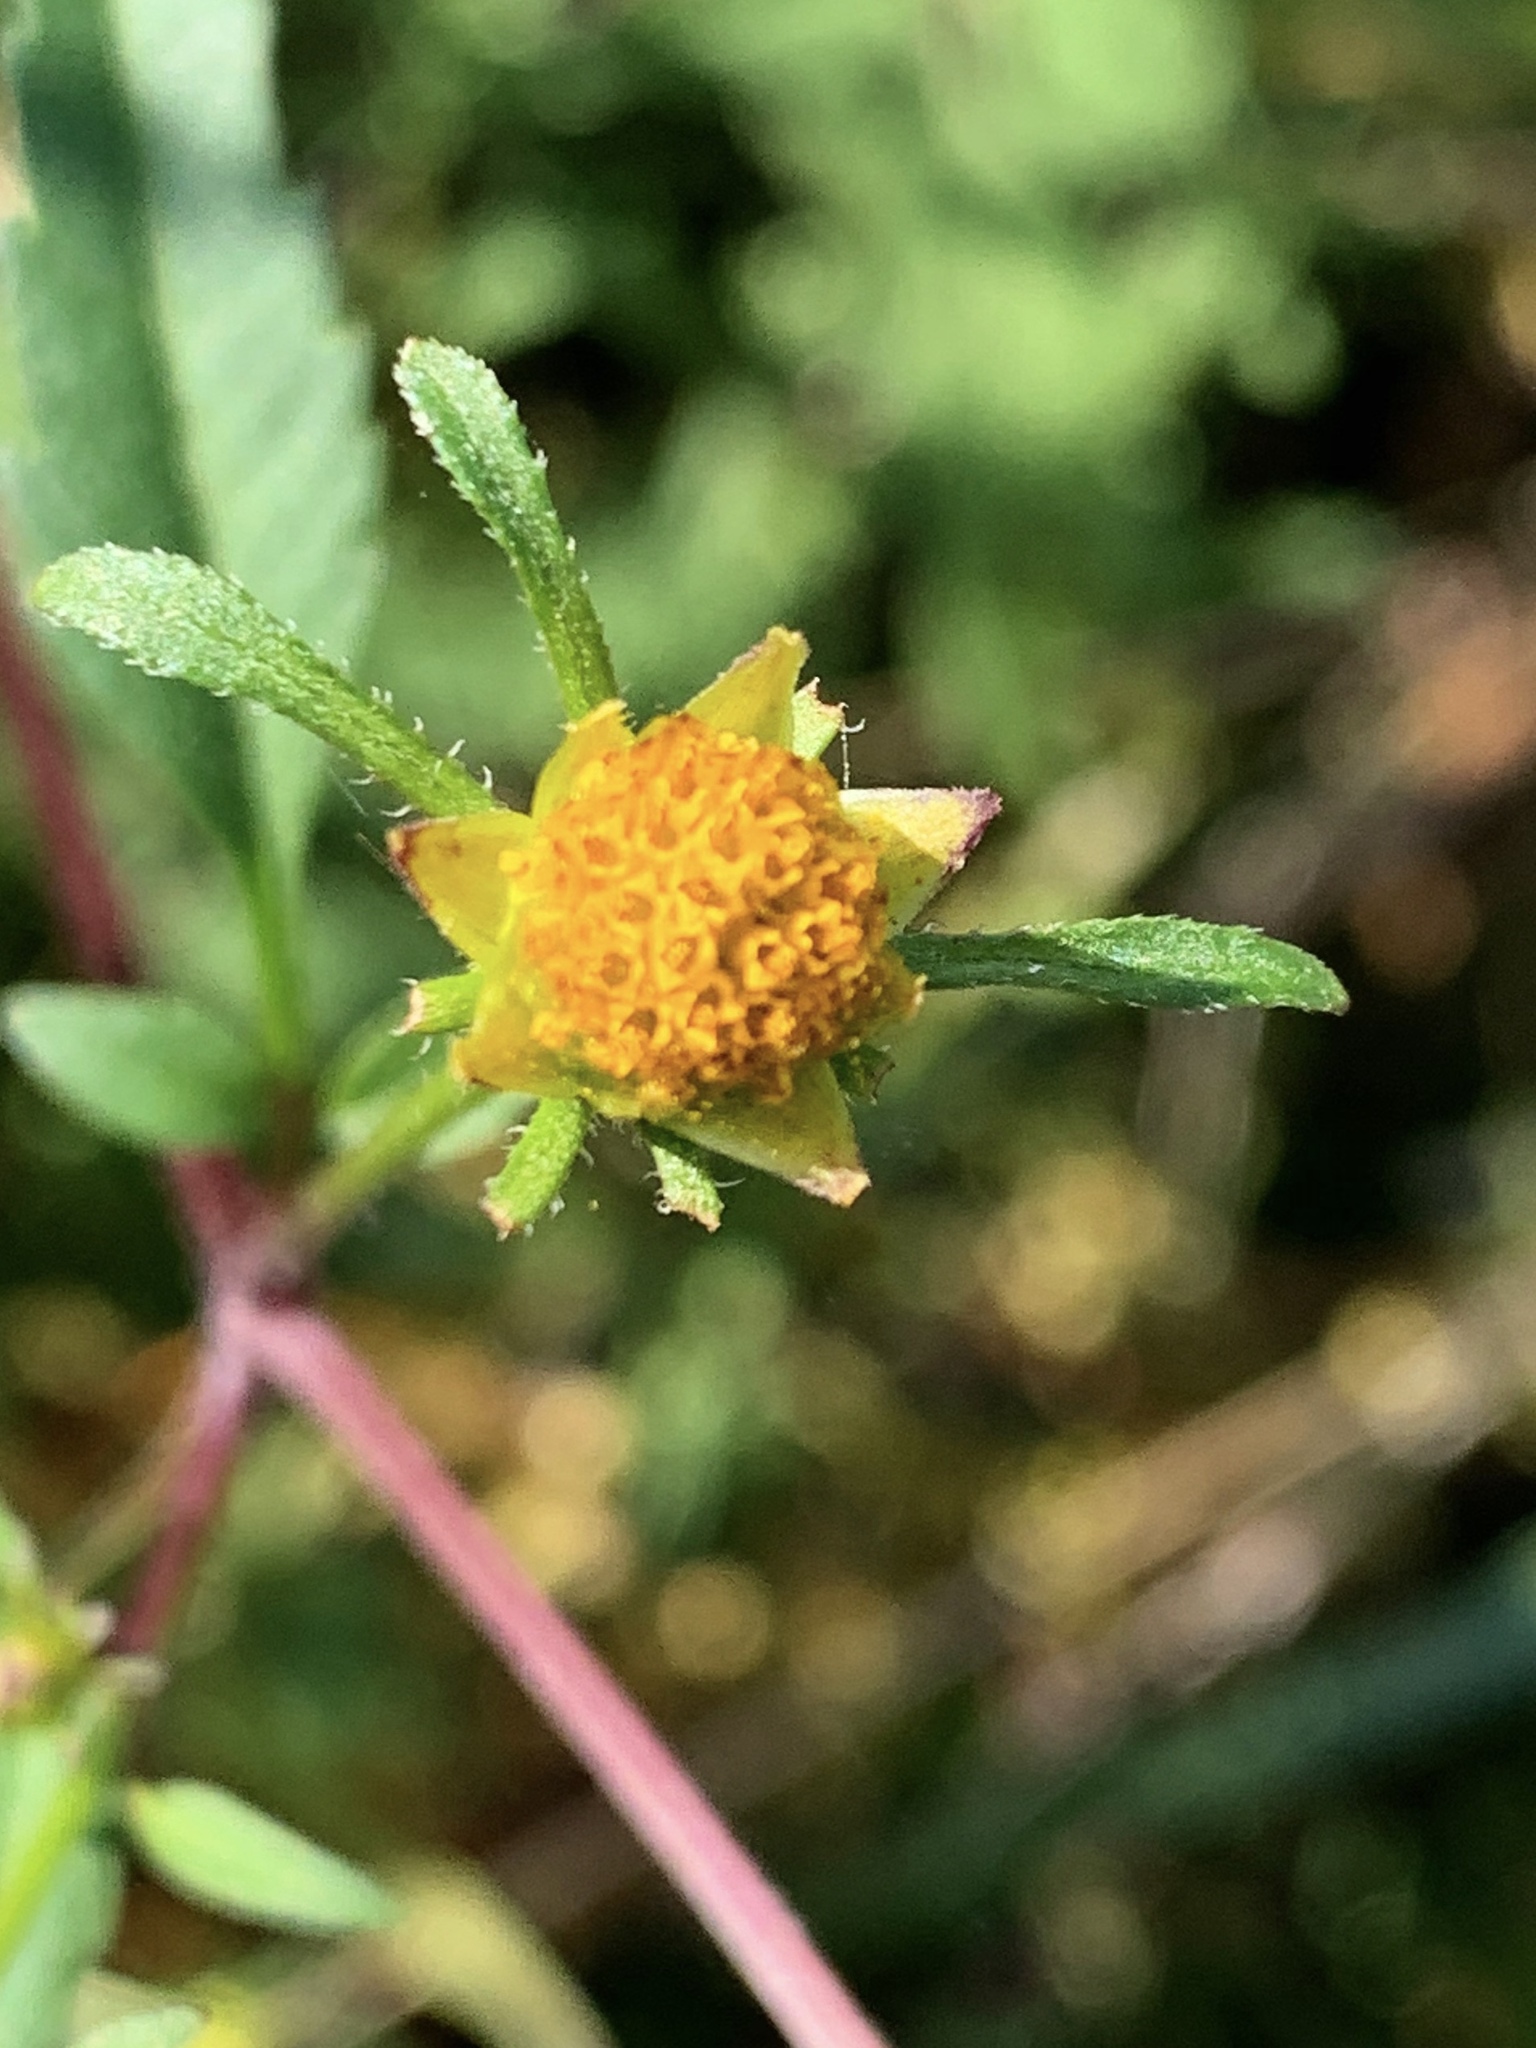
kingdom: Plantae
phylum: Tracheophyta
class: Magnoliopsida
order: Asterales
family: Asteraceae
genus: Bidens
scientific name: Bidens frondosa
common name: Beggarticks
